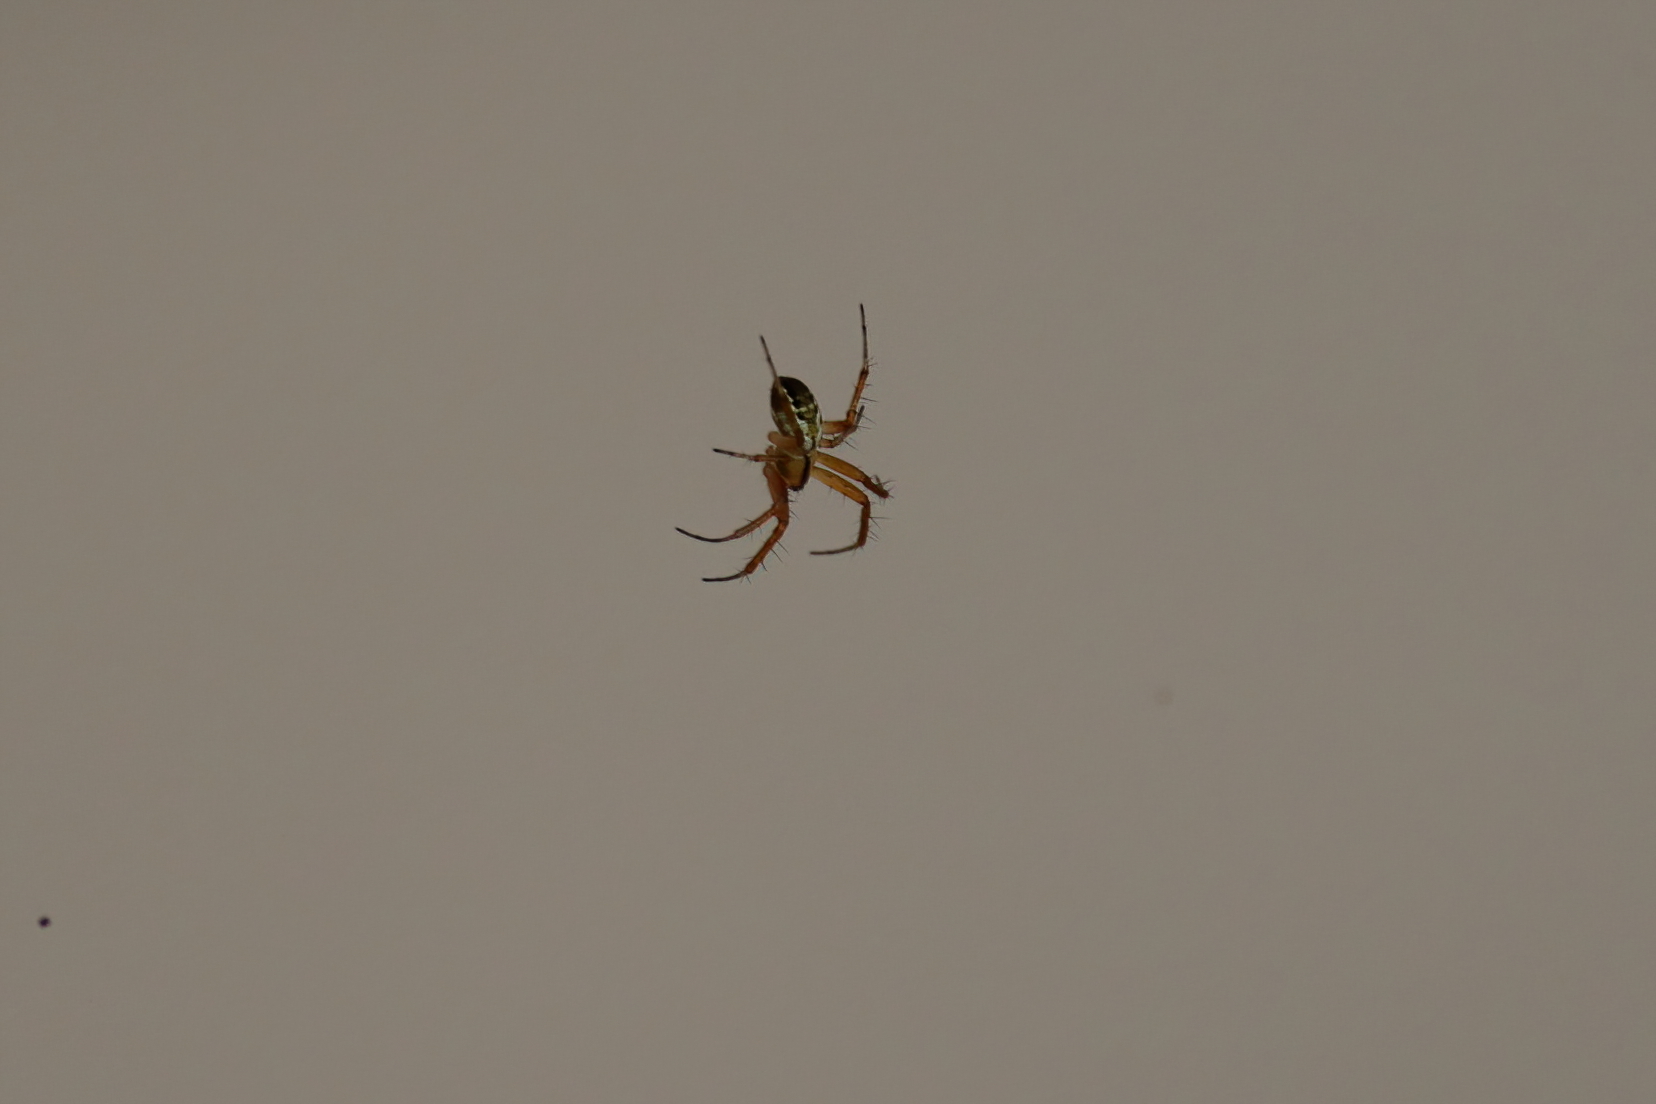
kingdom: Animalia
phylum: Arthropoda
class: Arachnida
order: Araneae
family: Araneidae
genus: Mangora
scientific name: Mangora placida
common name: Tuft-legged orbweaver
